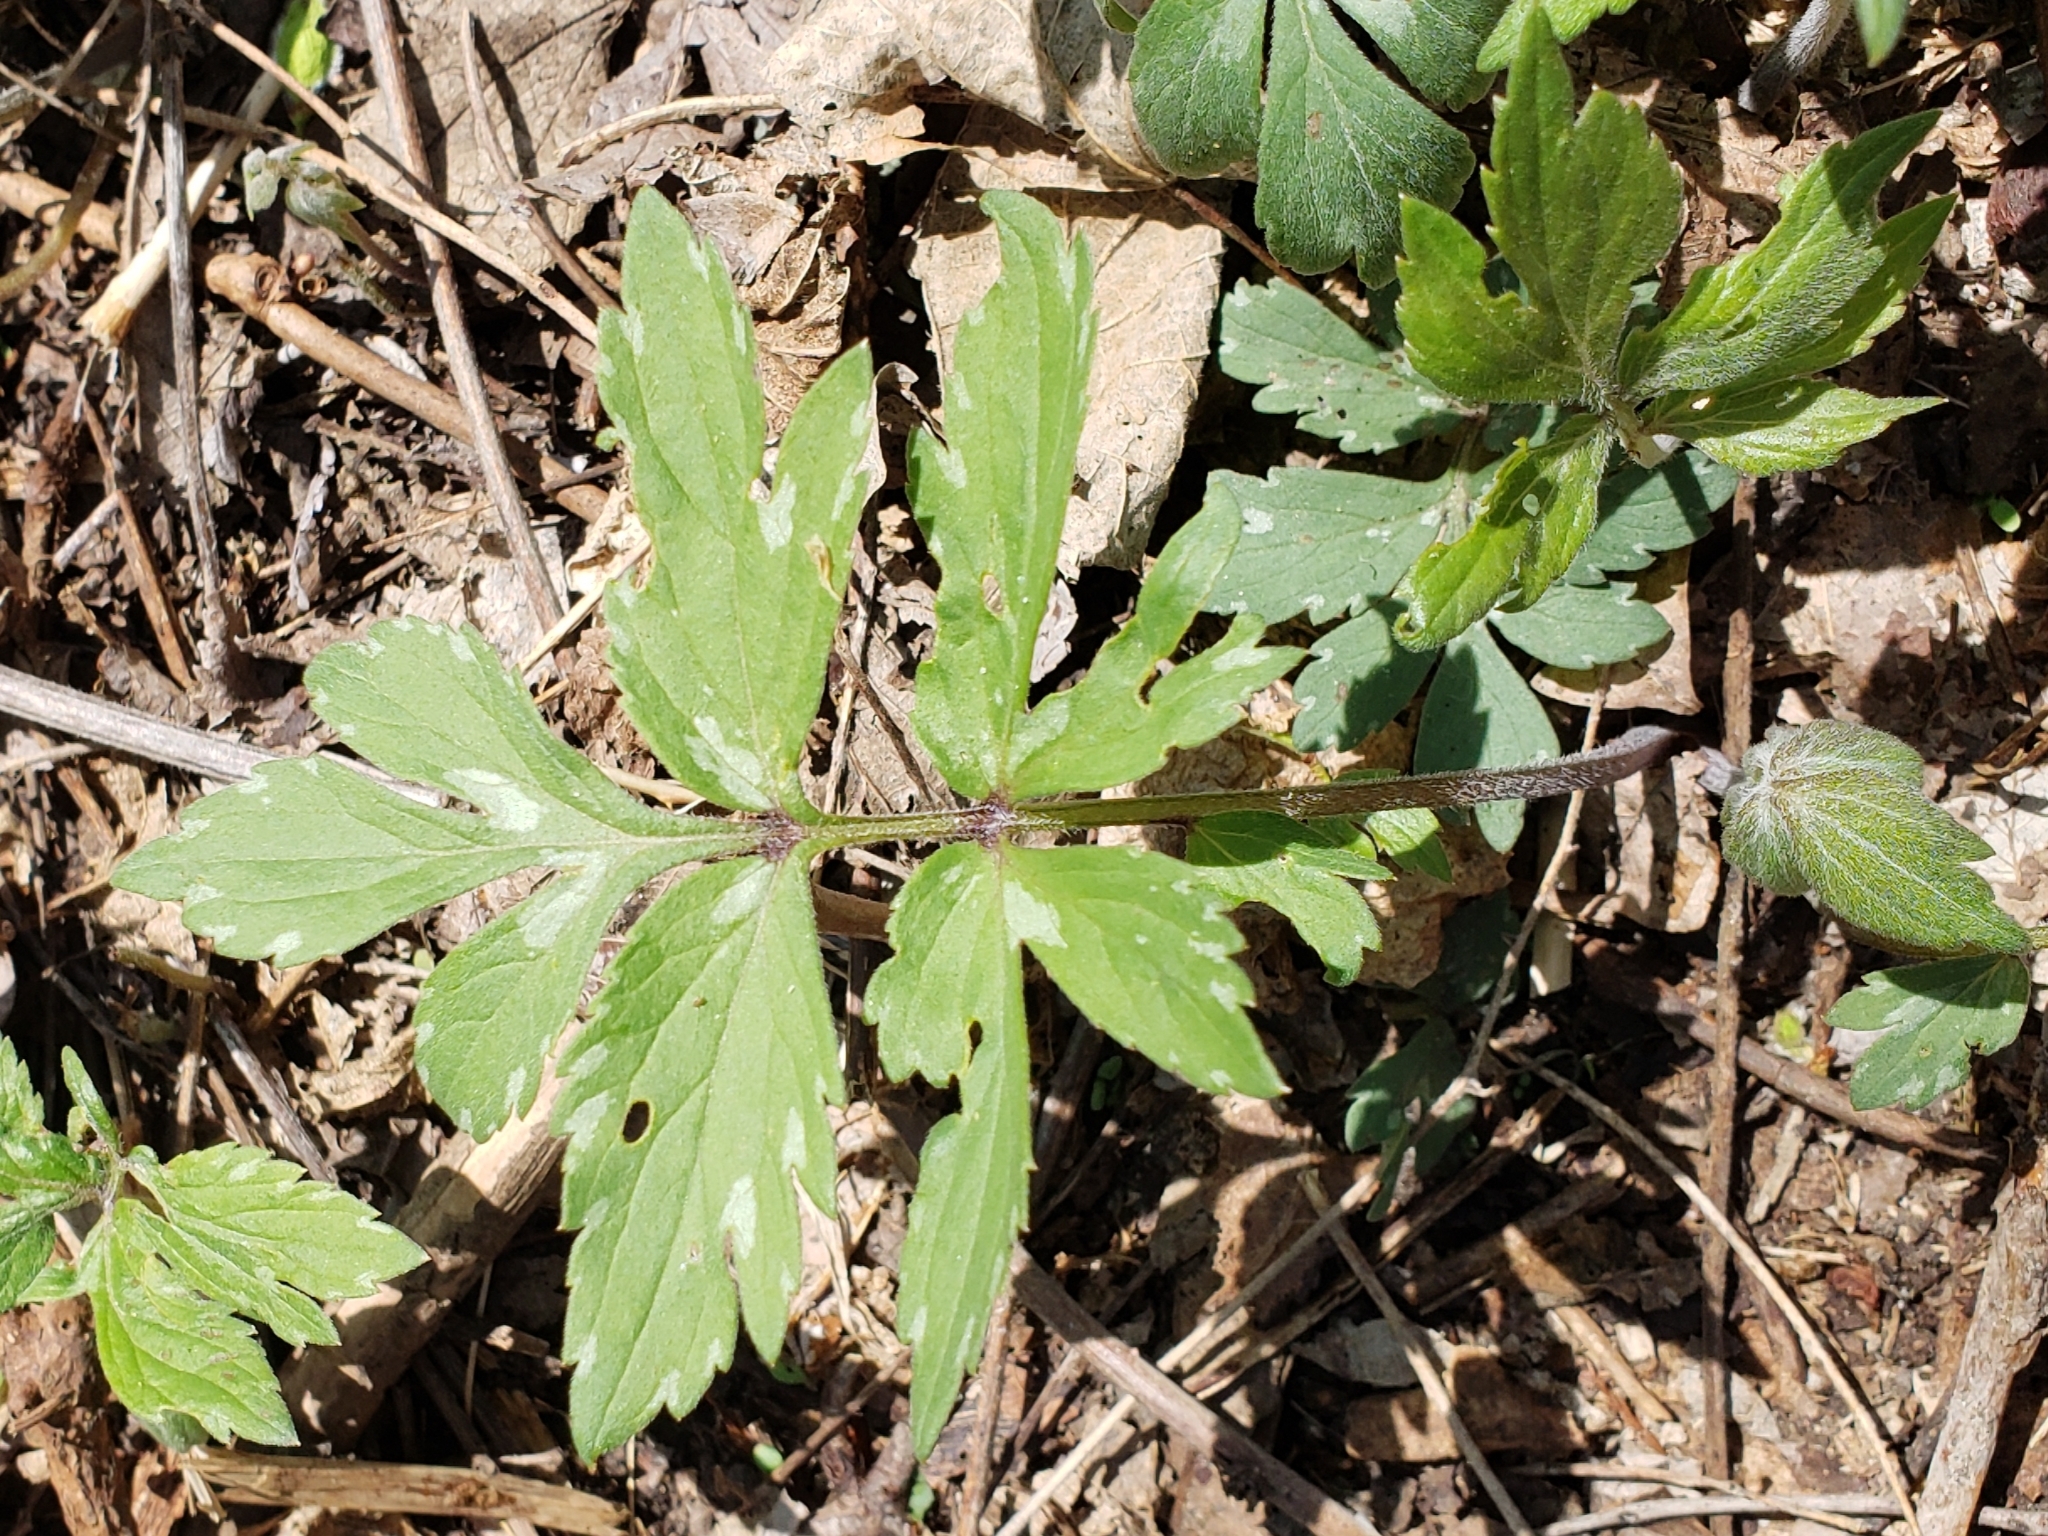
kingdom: Plantae
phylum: Tracheophyta
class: Magnoliopsida
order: Boraginales
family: Hydrophyllaceae
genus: Hydrophyllum
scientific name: Hydrophyllum virginianum
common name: Virginia waterleaf
